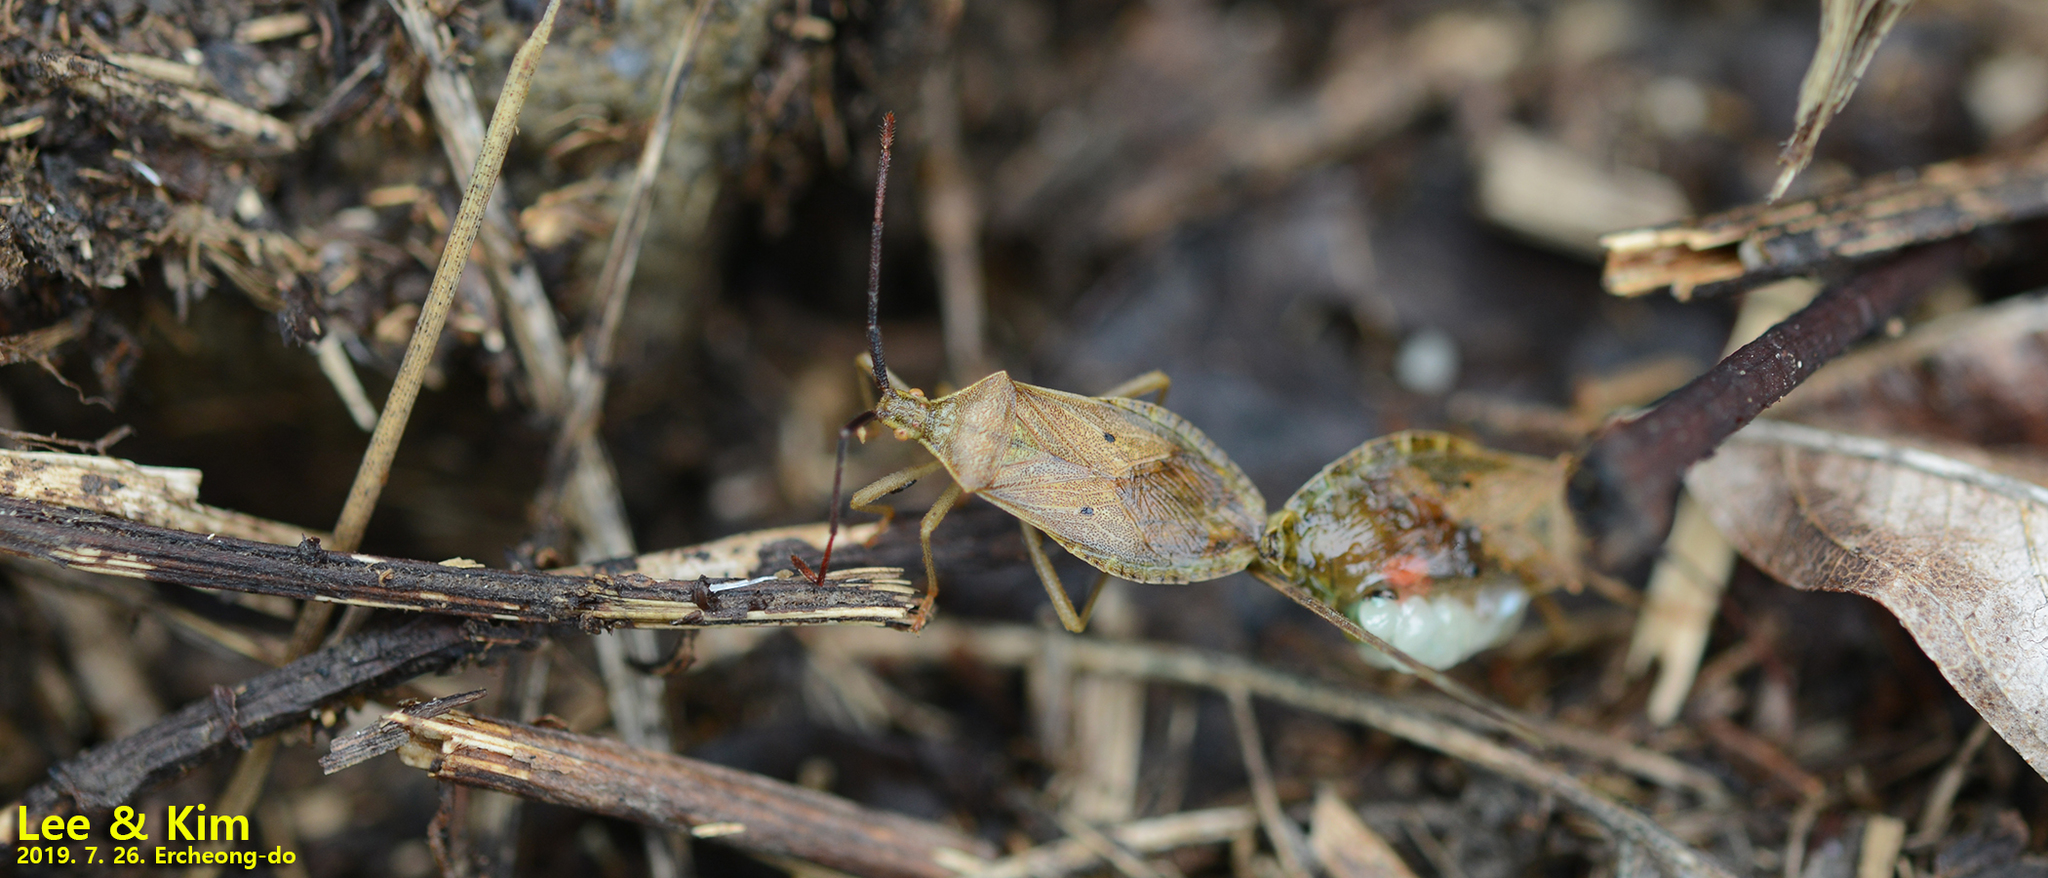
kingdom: Animalia
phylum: Arthropoda
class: Insecta
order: Hemiptera
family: Coreidae
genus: Homoeocerus
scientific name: Homoeocerus unipunctatus
